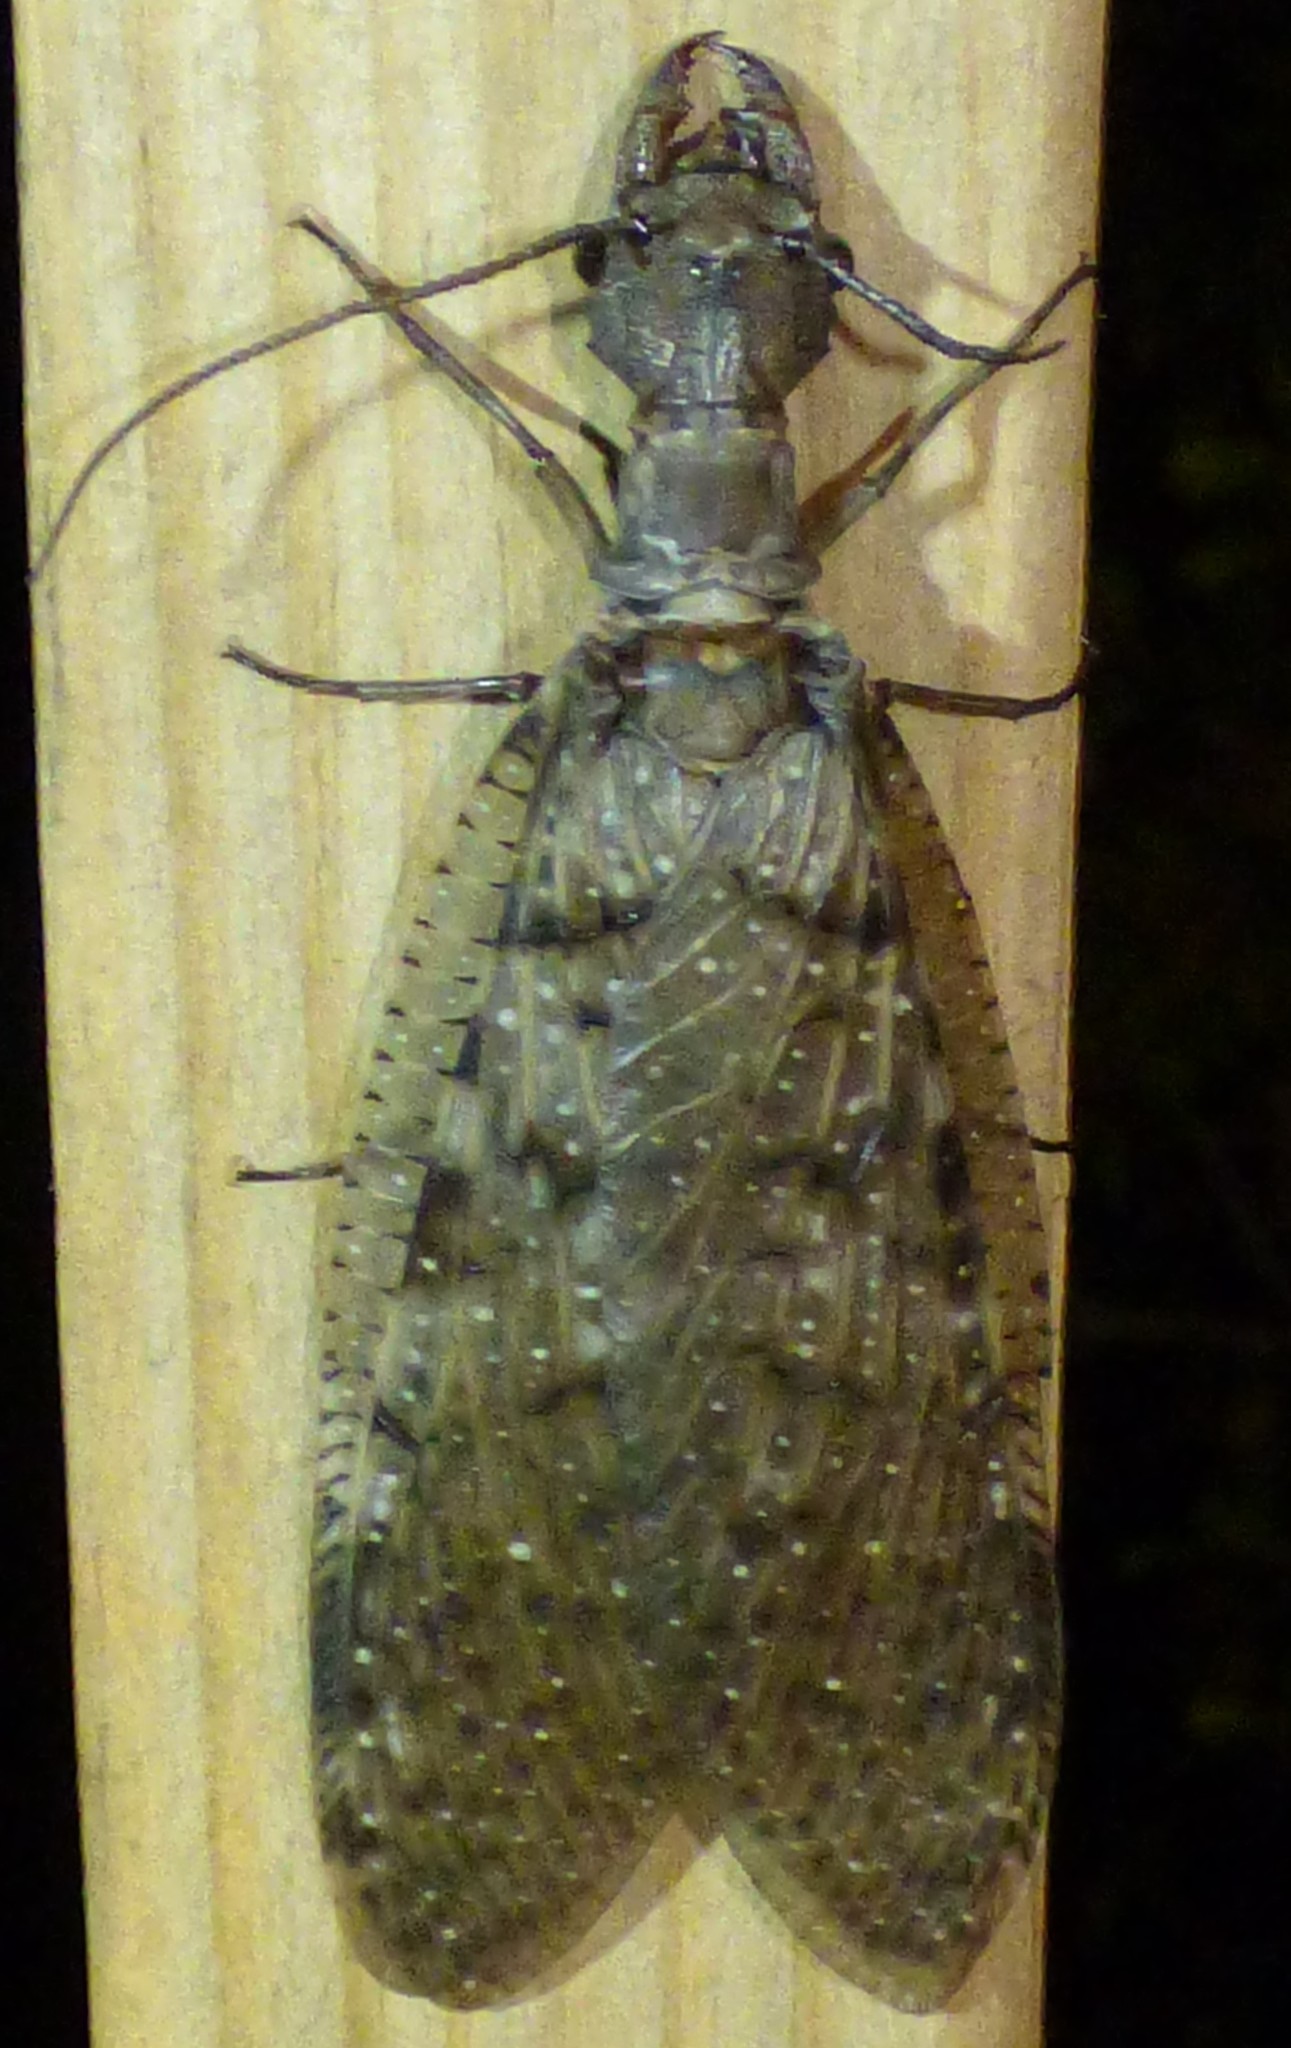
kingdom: Animalia
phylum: Arthropoda
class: Insecta
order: Megaloptera
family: Corydalidae
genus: Corydalus
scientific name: Corydalus cornutus
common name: Dobsonfly
